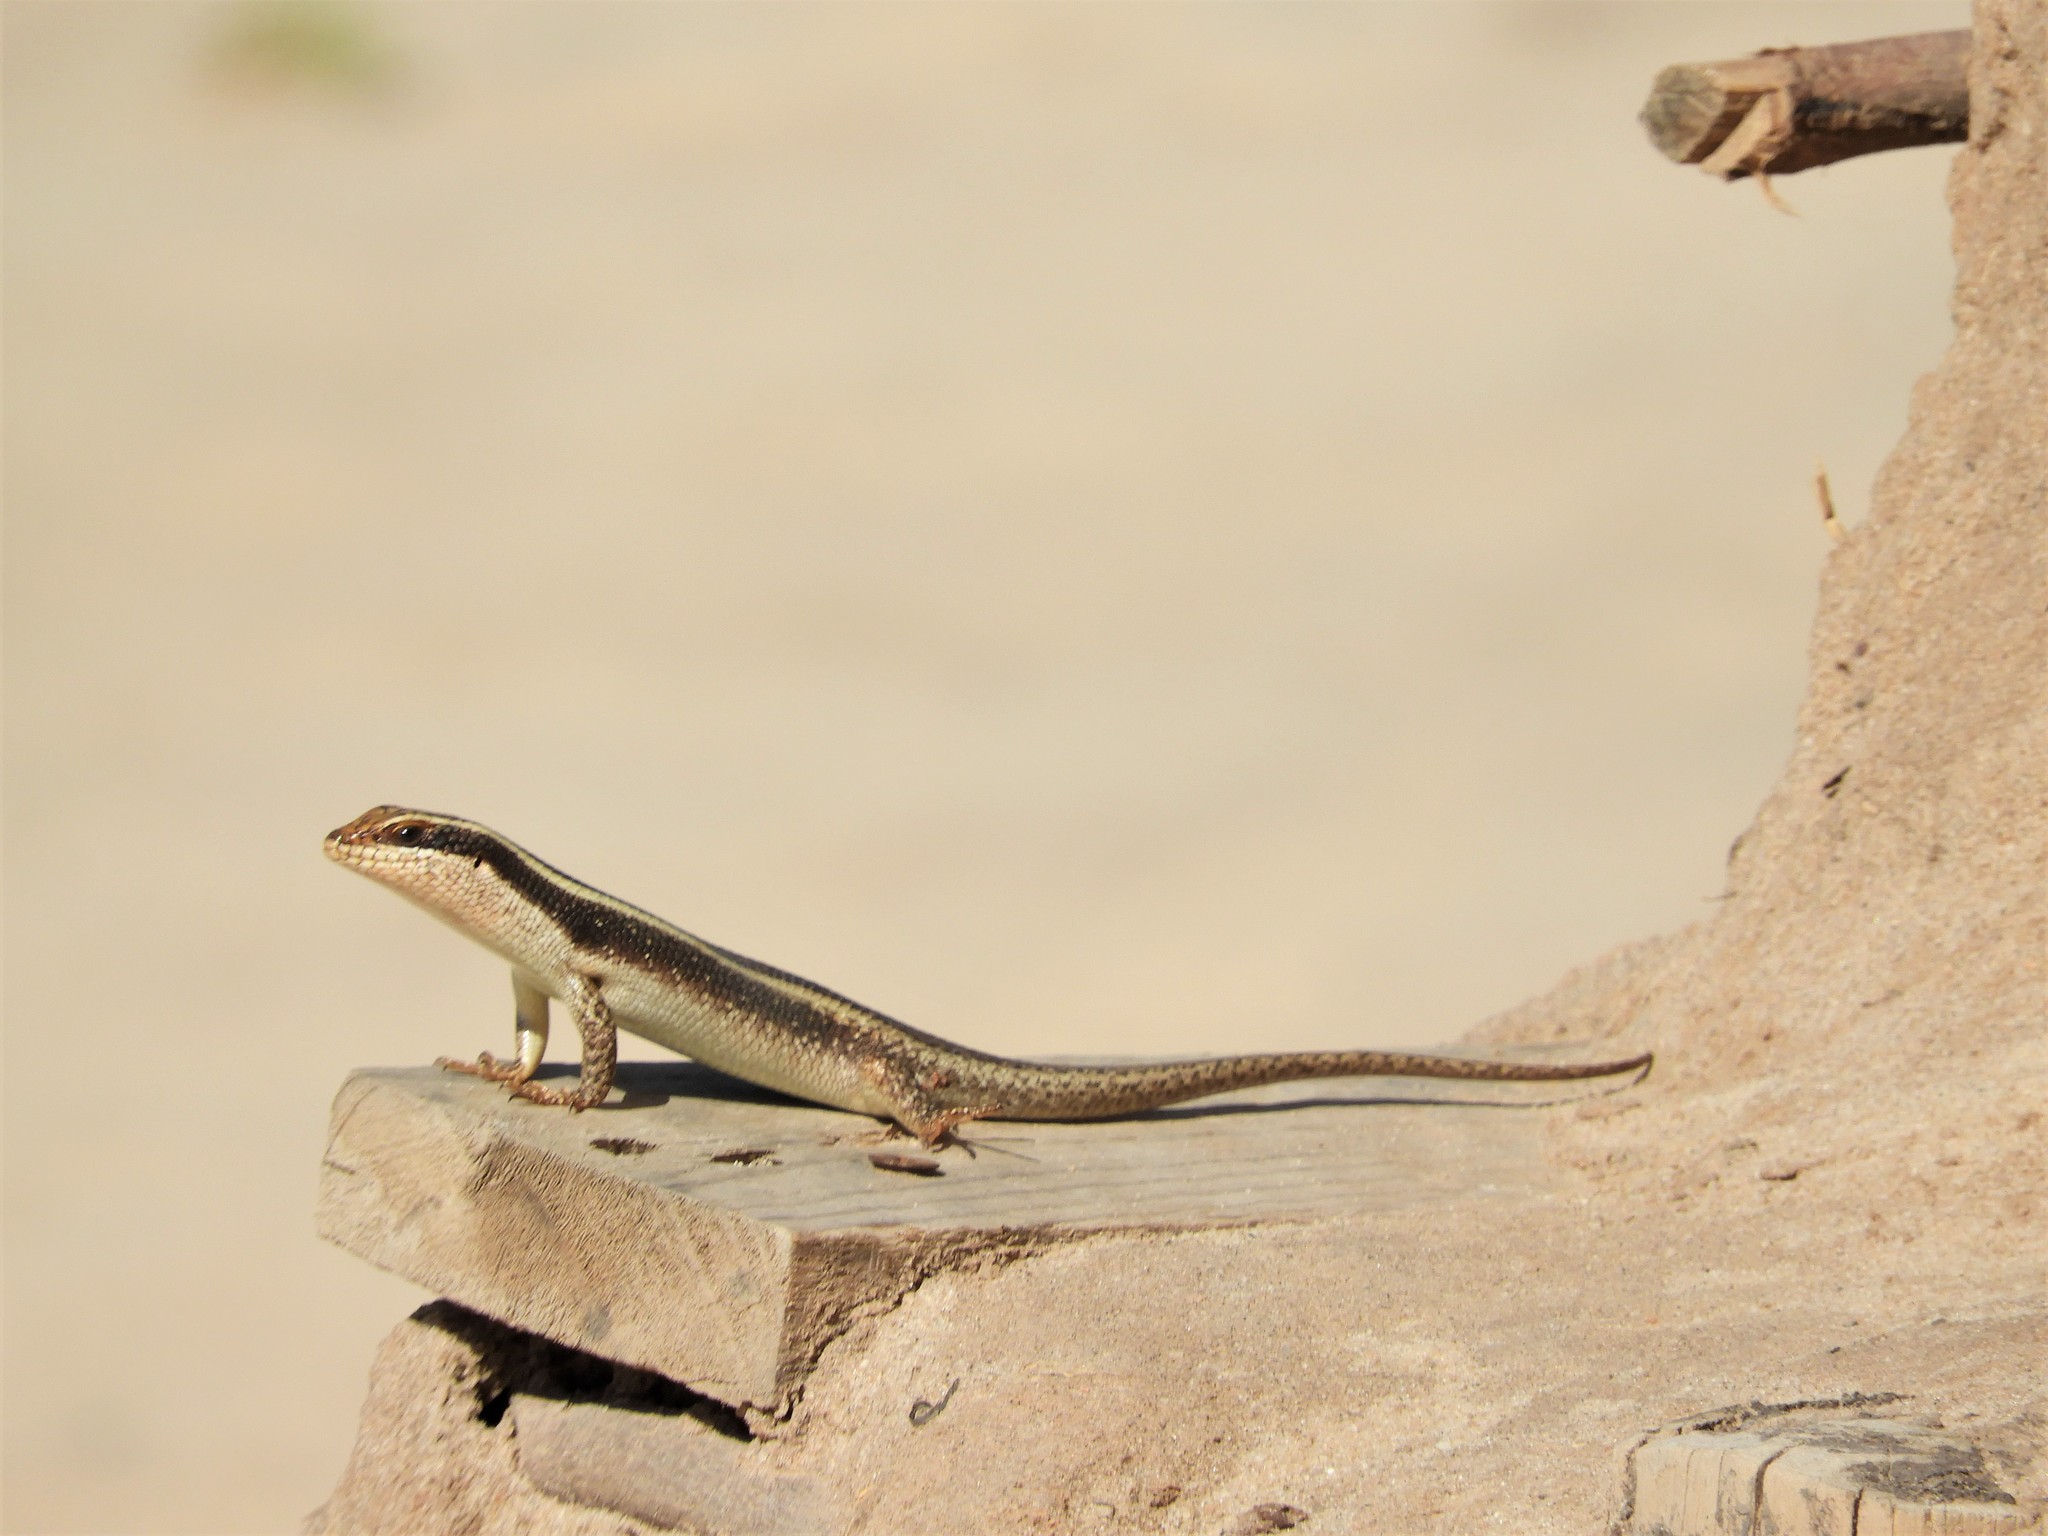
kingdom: Animalia
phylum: Chordata
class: Squamata
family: Scincidae
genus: Trachylepis
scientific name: Trachylepis striata
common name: African striped mabuya
